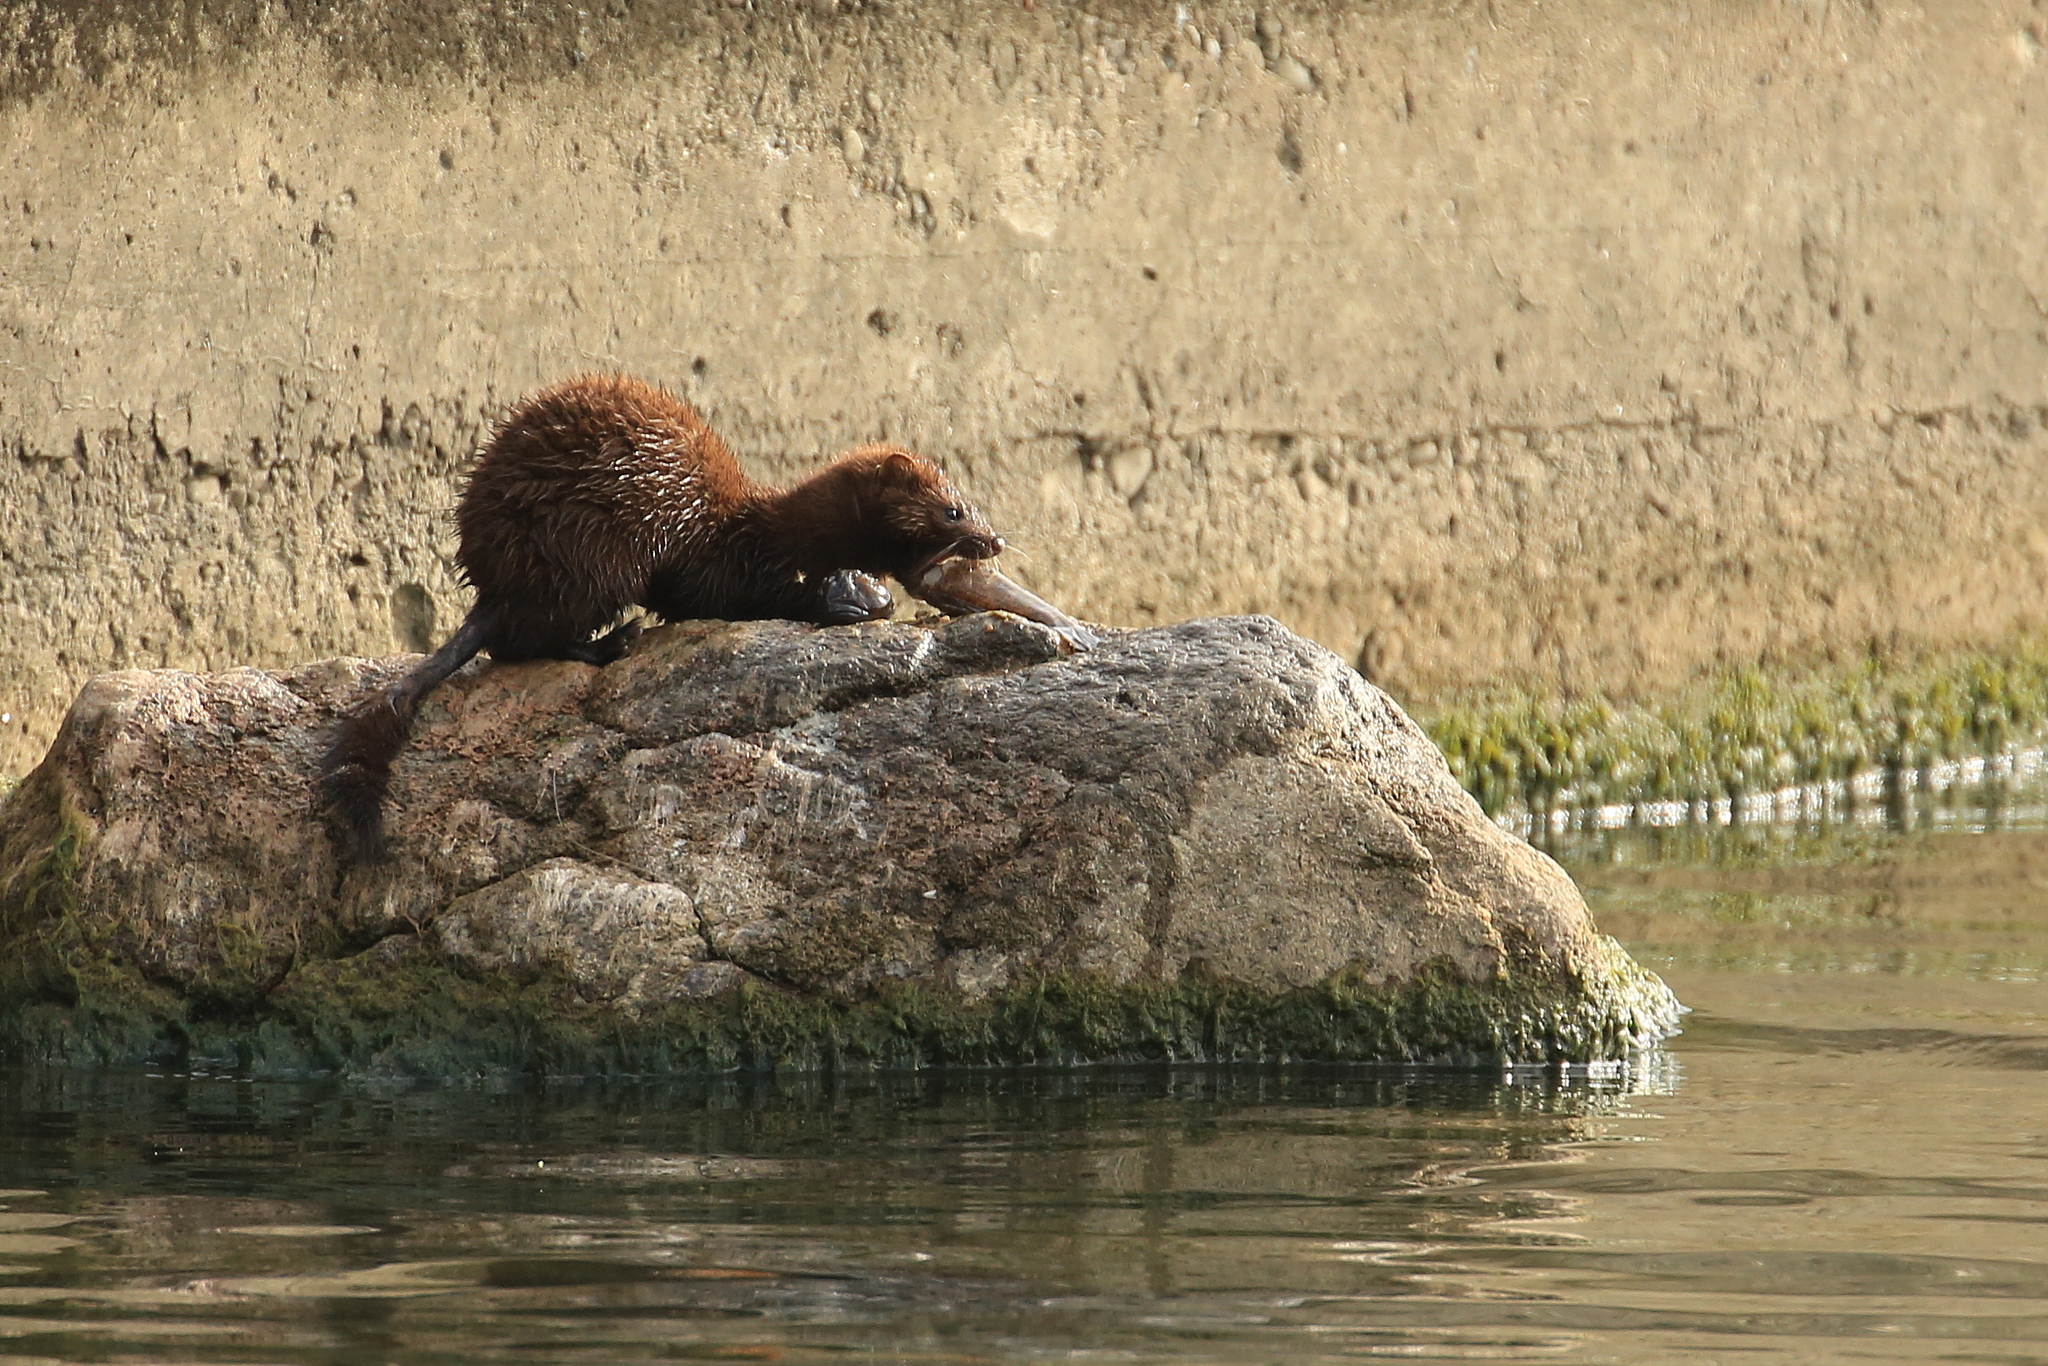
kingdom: Animalia
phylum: Chordata
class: Mammalia
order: Carnivora
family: Mustelidae
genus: Mustela
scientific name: Mustela
